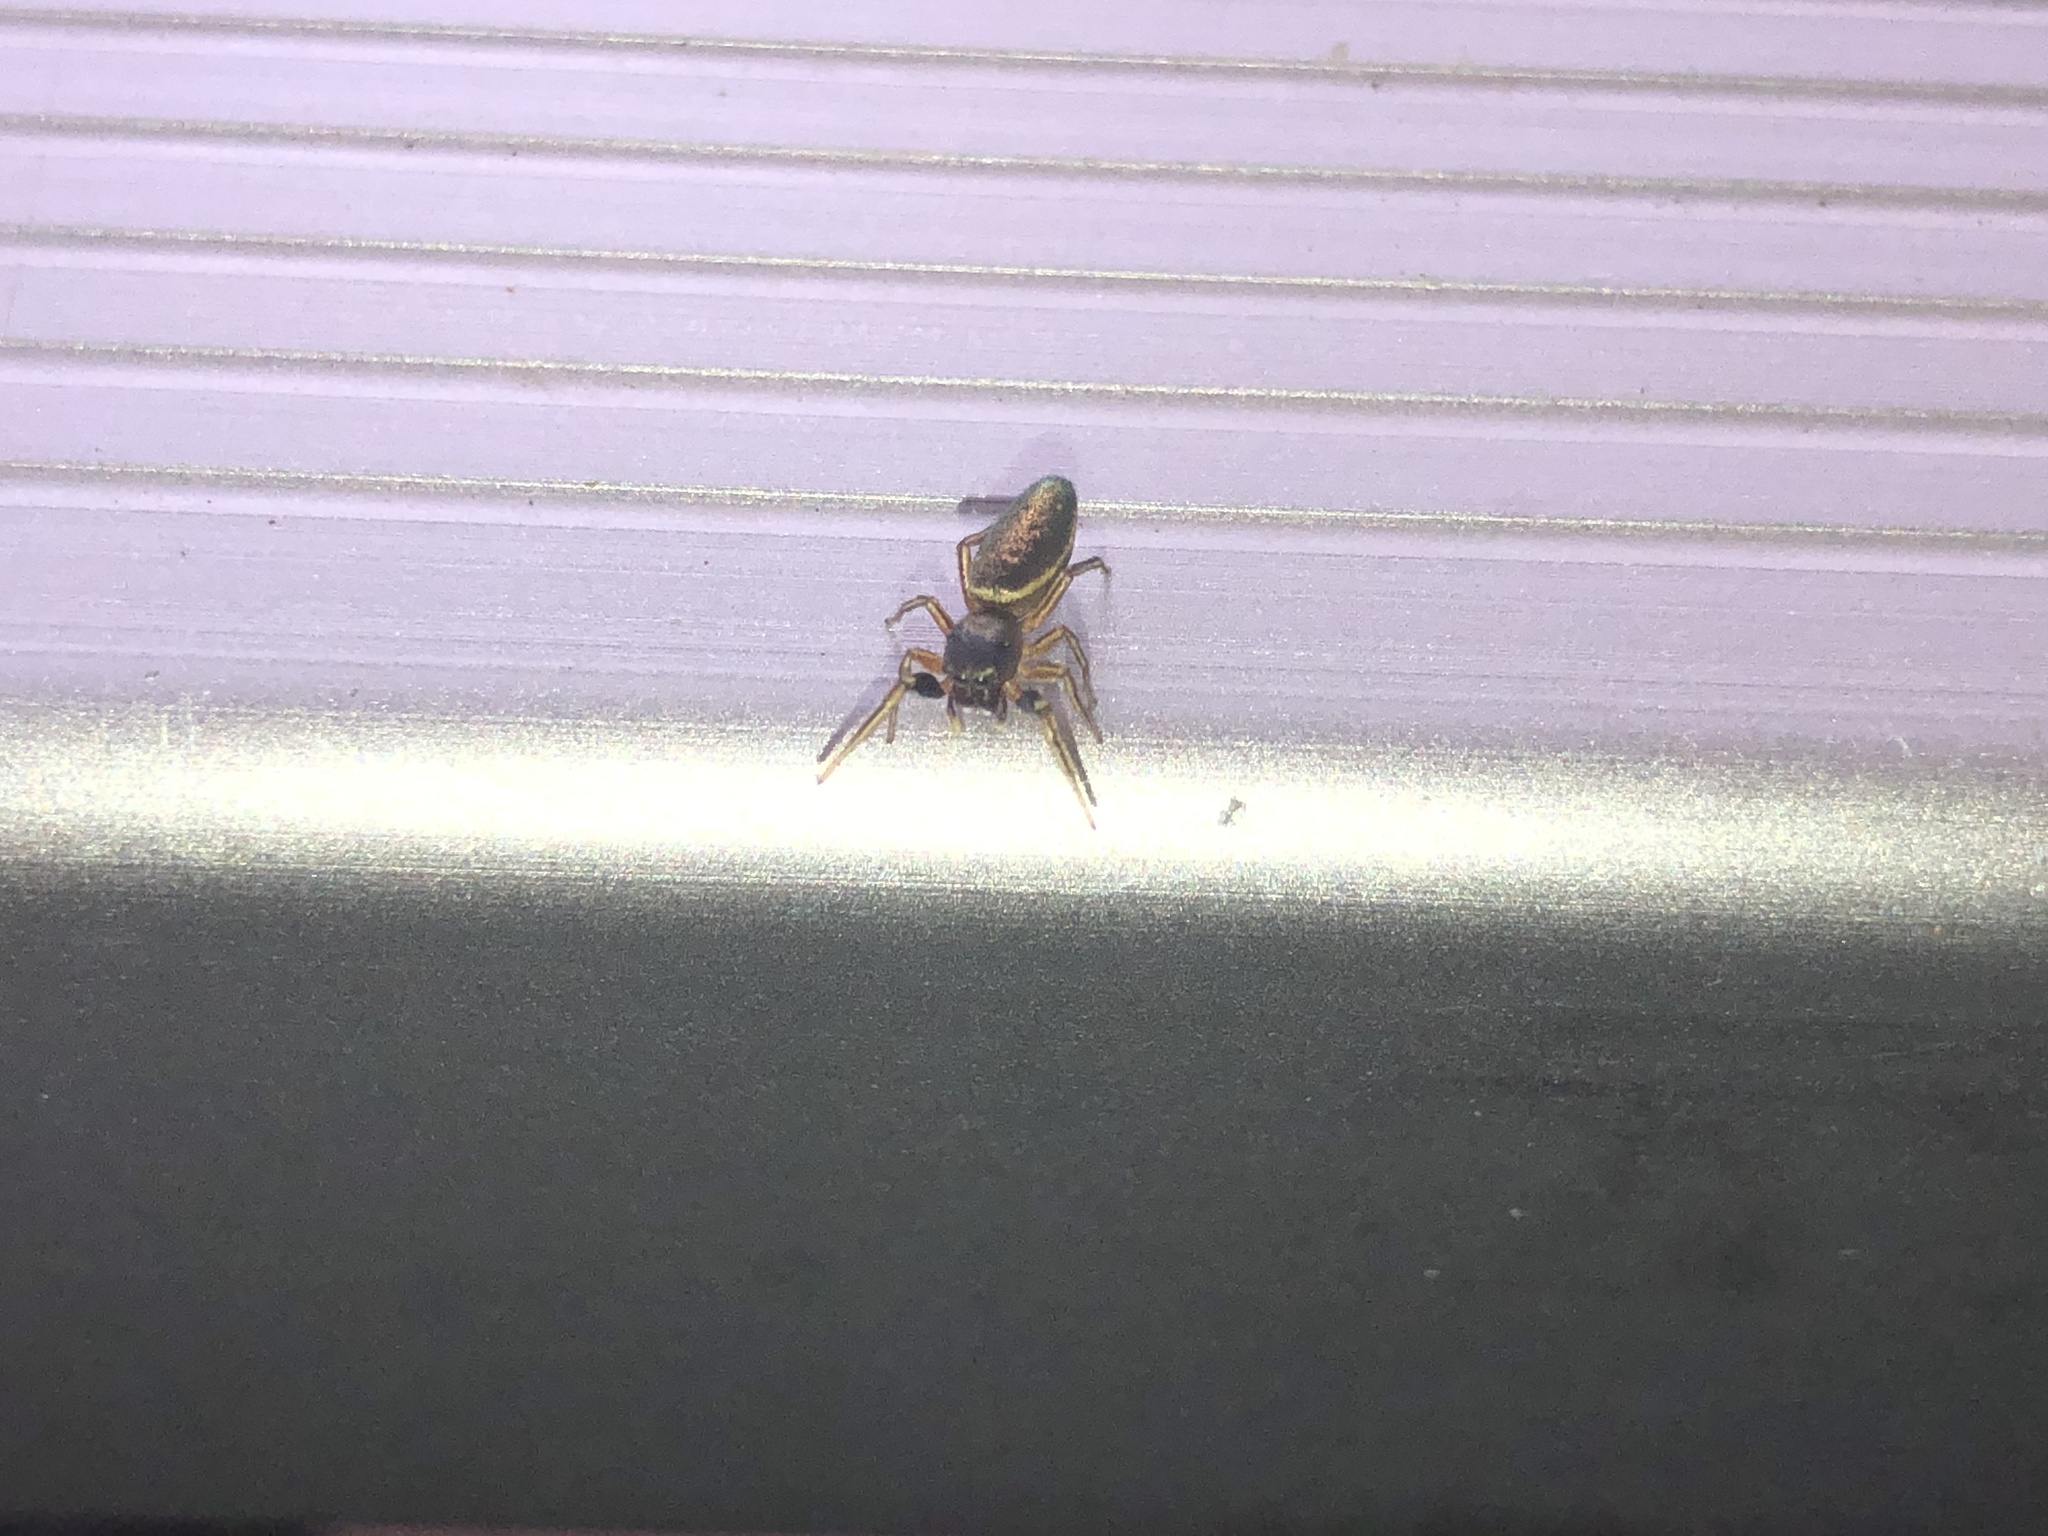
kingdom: Animalia
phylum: Arthropoda
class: Arachnida
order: Araneae
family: Salticidae
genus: Tutelina
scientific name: Tutelina elegans
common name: Thin-spined jumping spider
